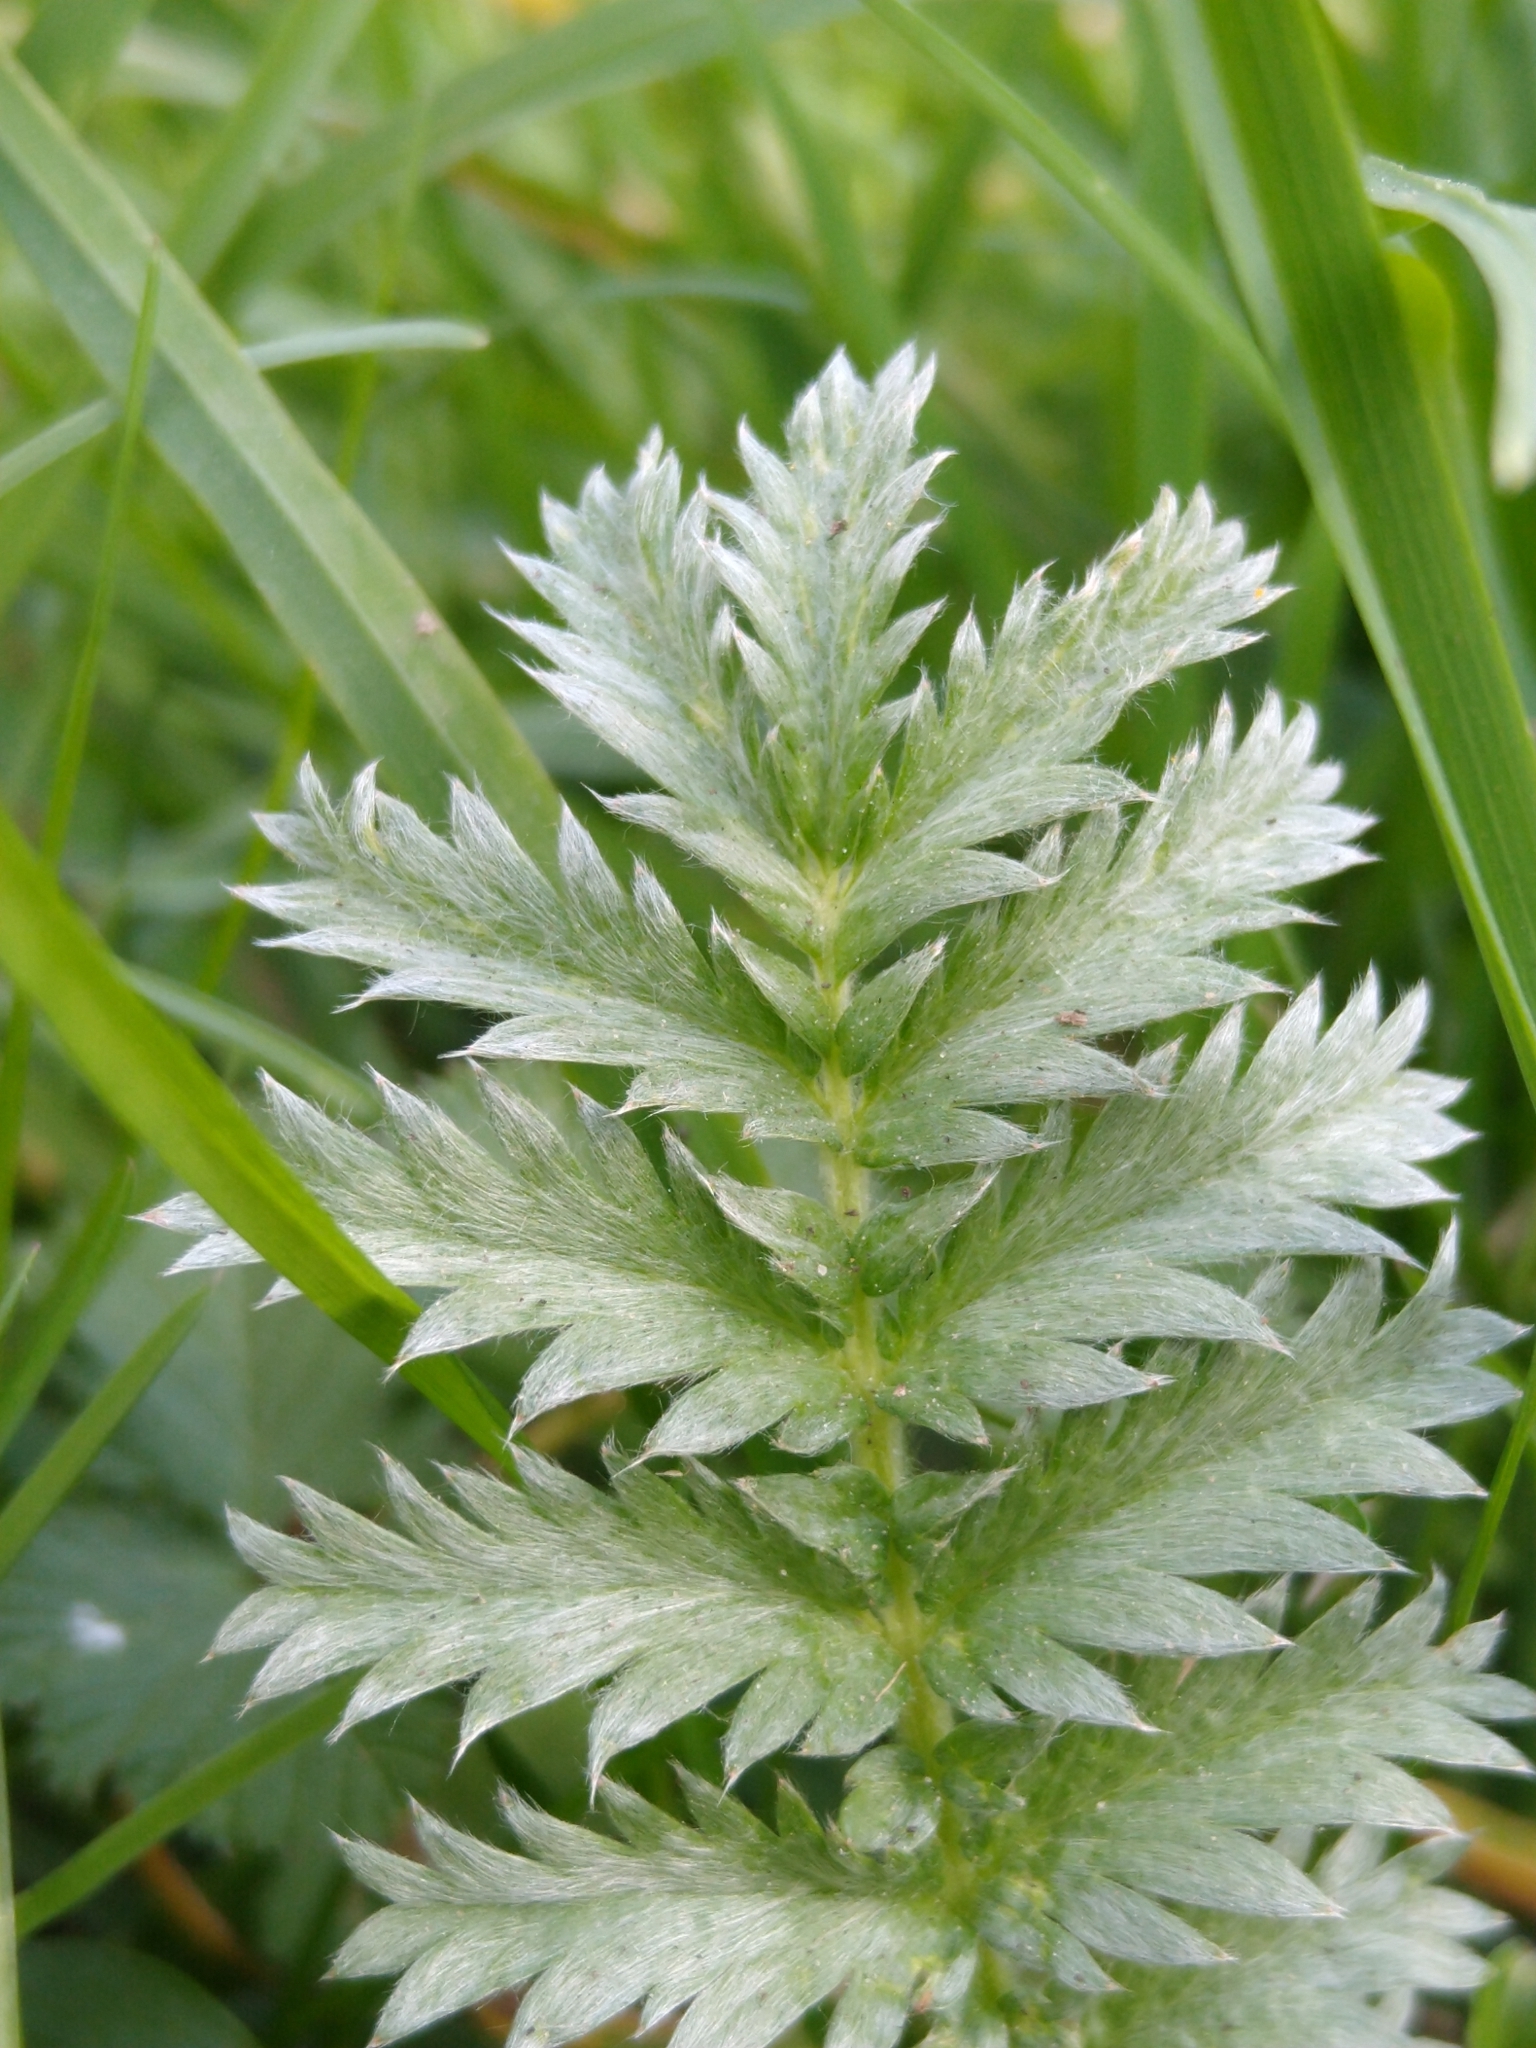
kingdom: Plantae
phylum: Tracheophyta
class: Magnoliopsida
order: Rosales
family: Rosaceae
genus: Argentina
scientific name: Argentina anserina
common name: Common silverweed
